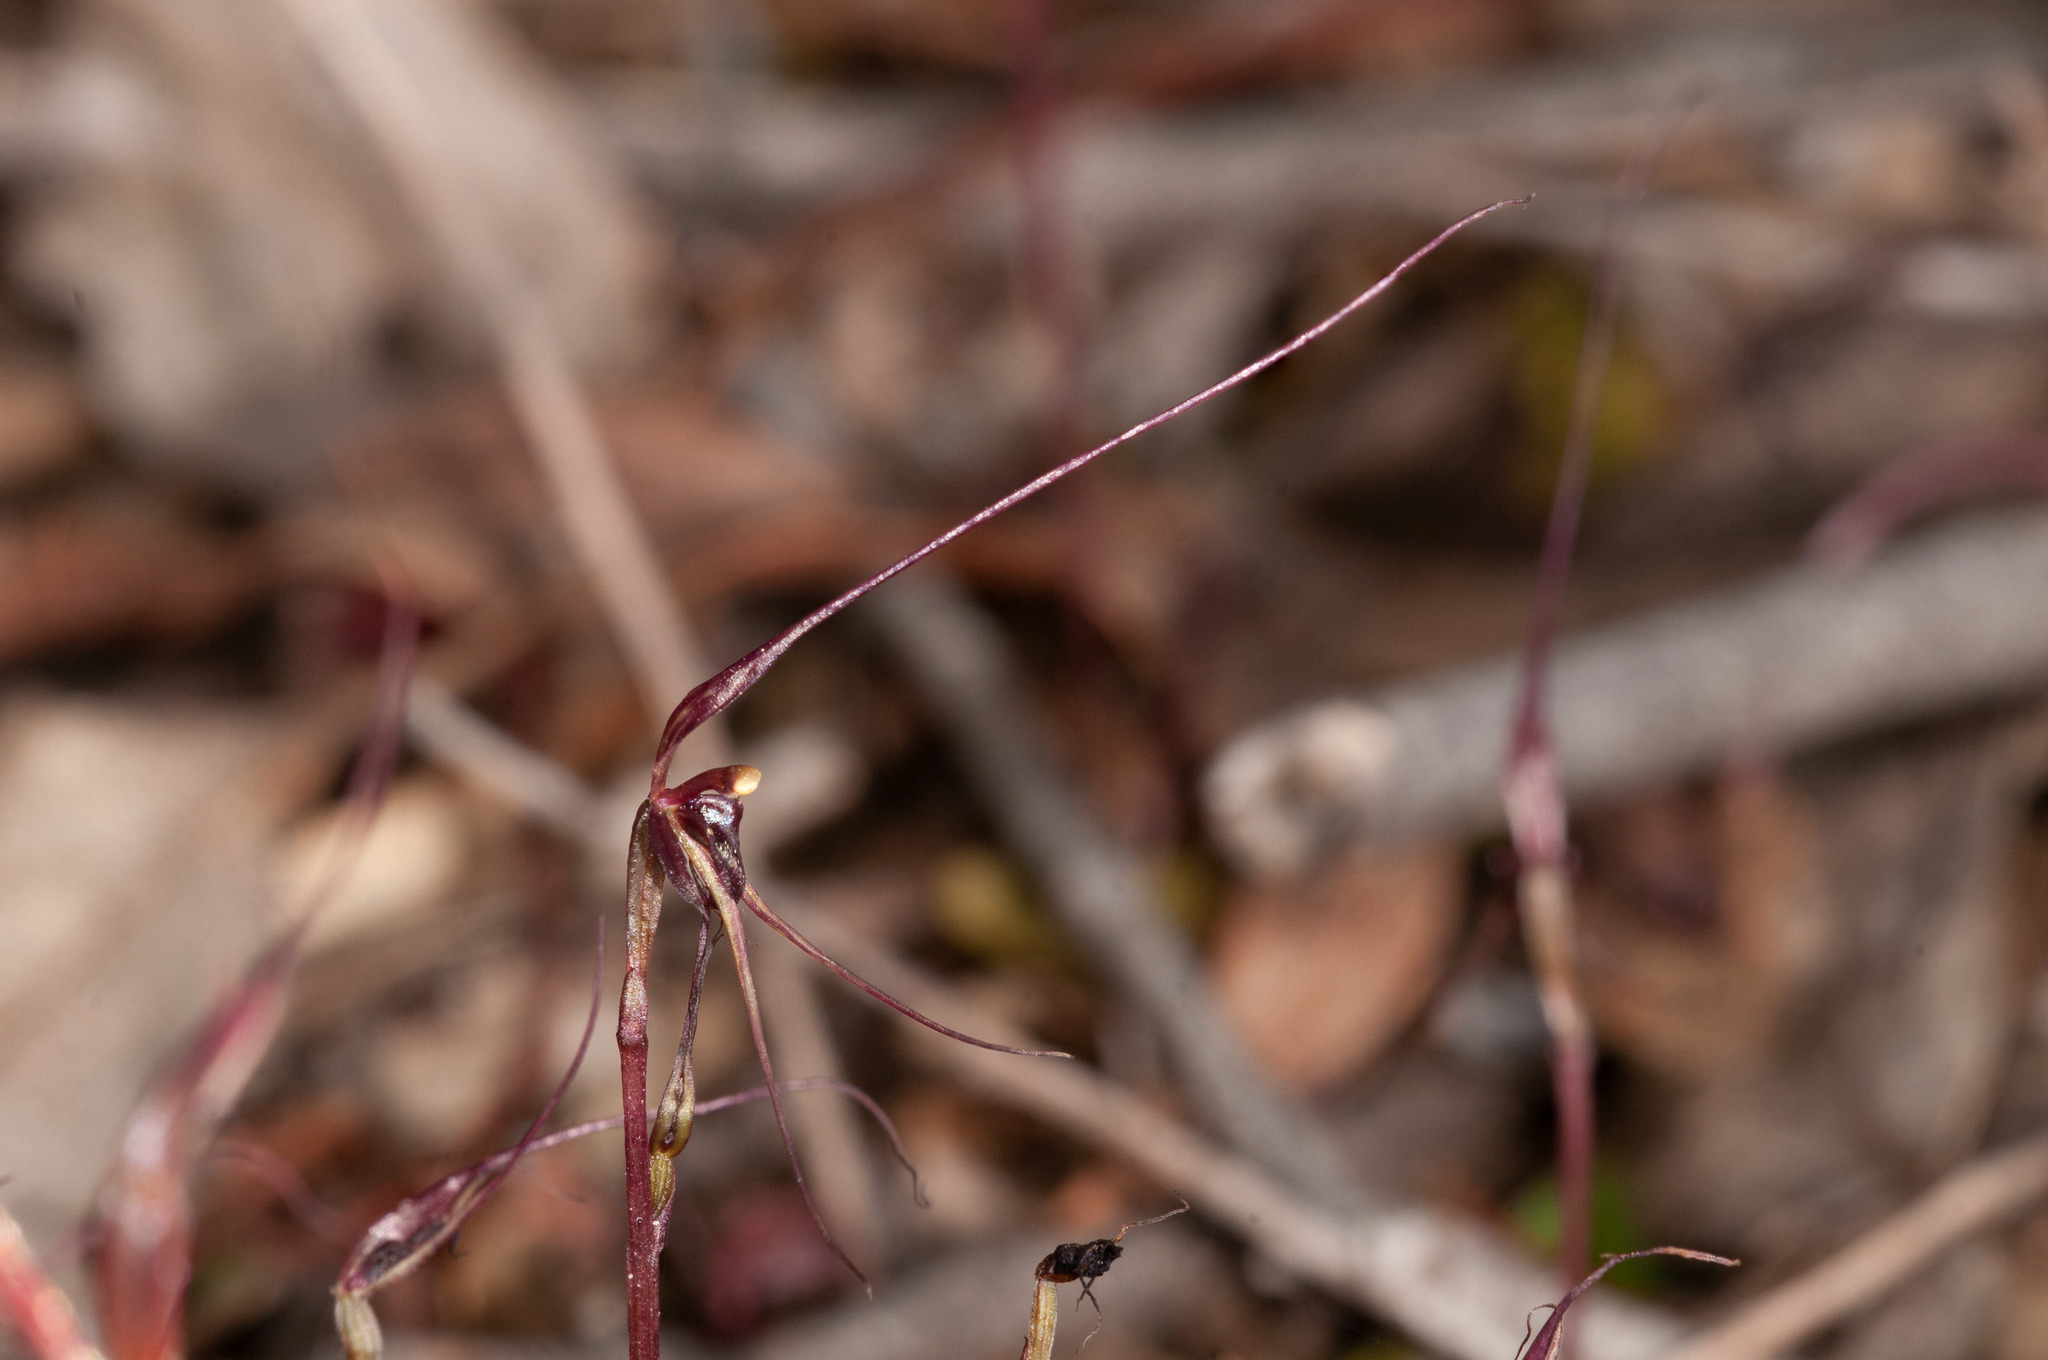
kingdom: Plantae
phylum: Tracheophyta
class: Liliopsida
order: Asparagales
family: Orchidaceae
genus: Acianthus
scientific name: Acianthus caudatus
